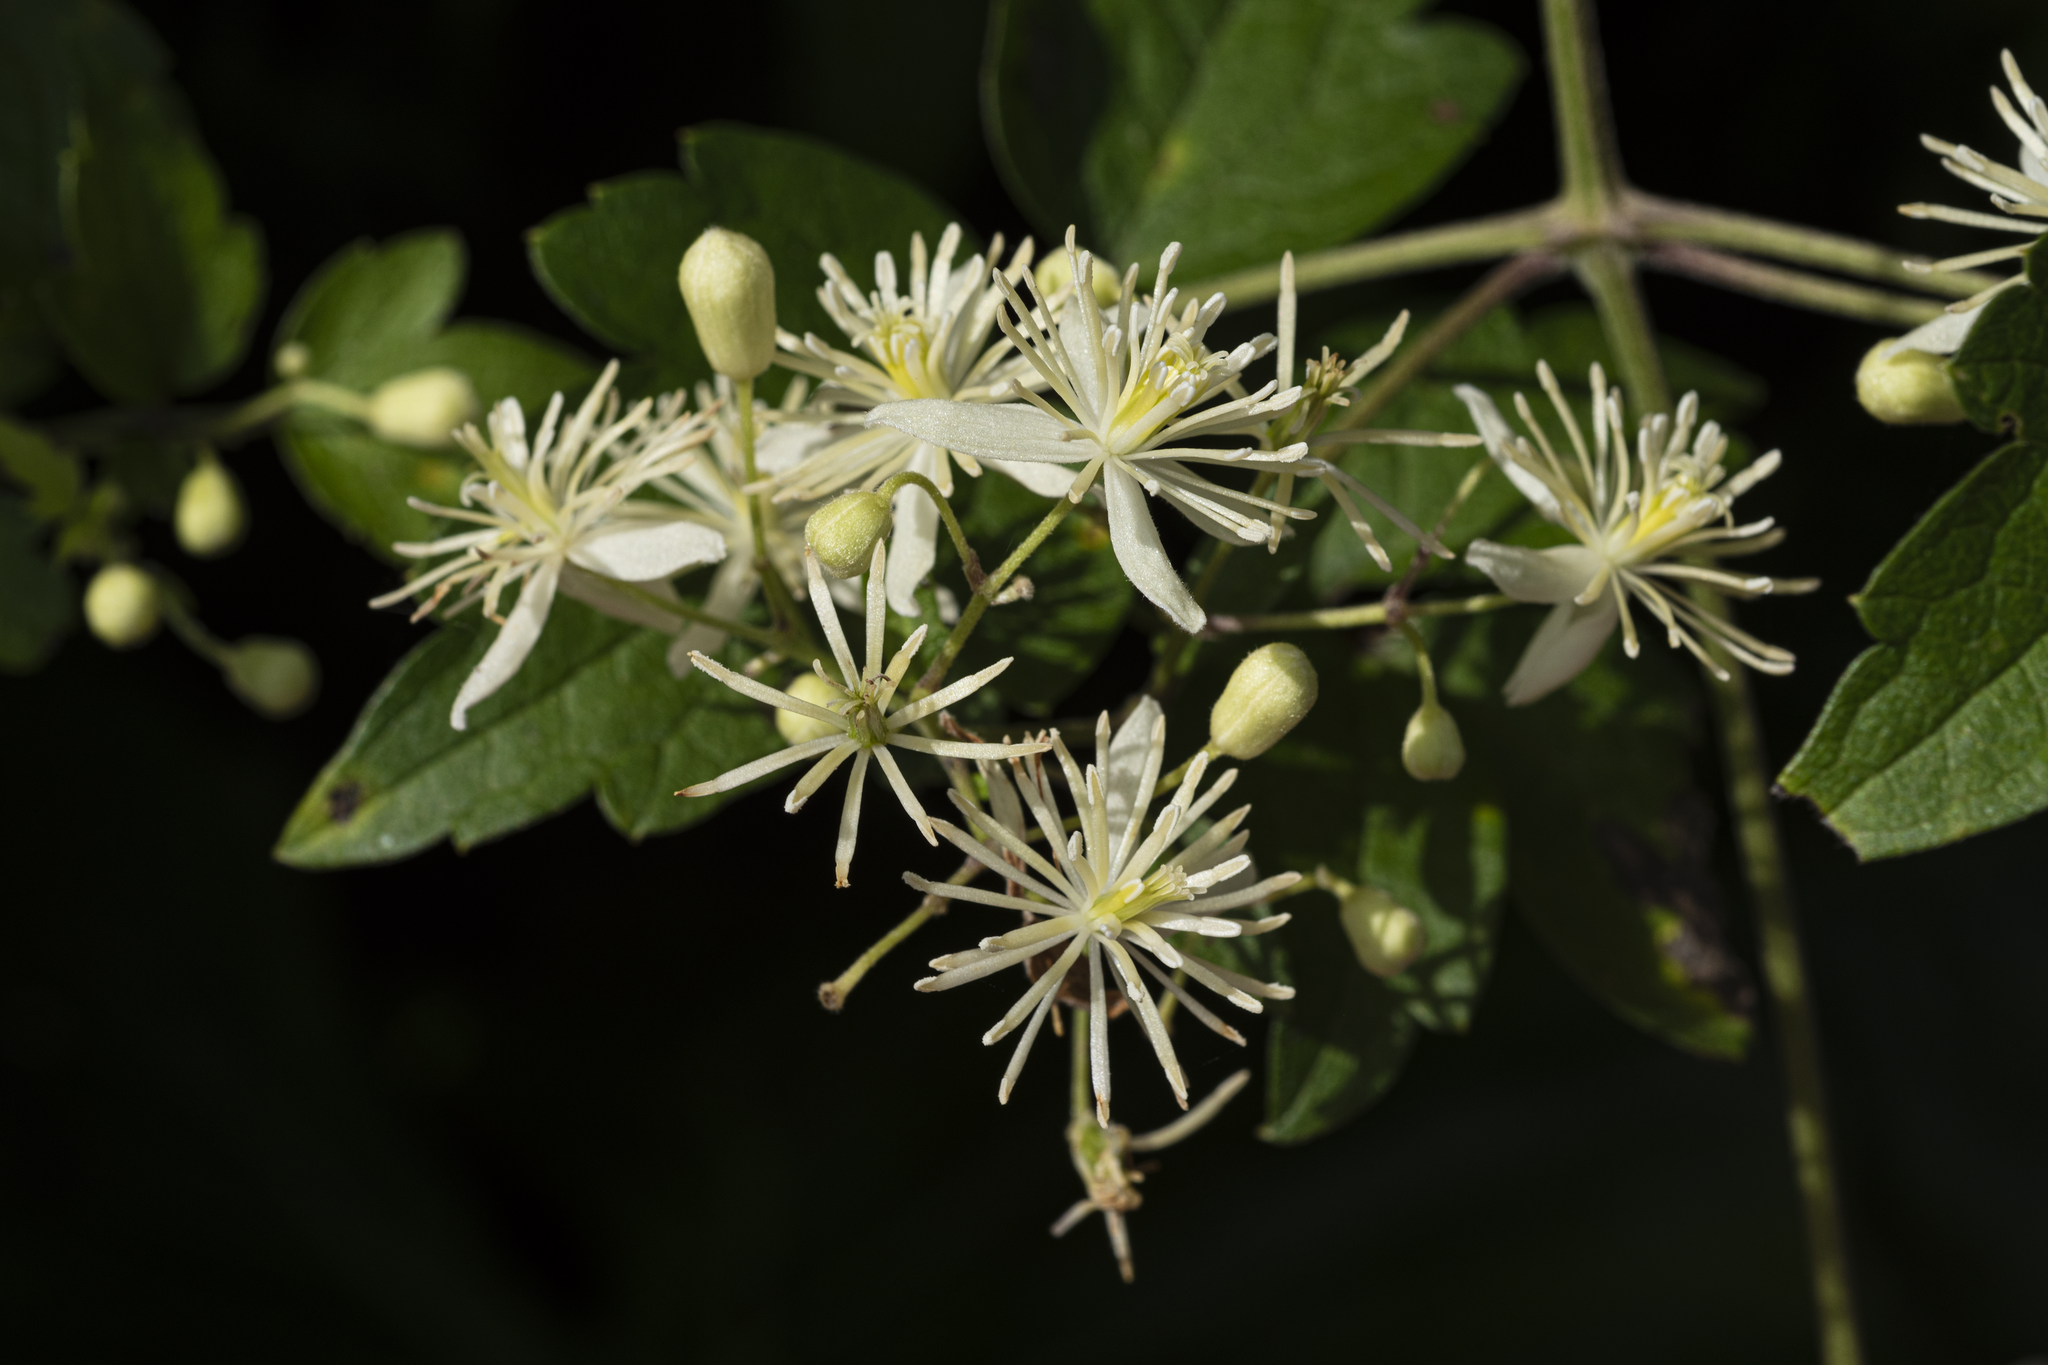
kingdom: Plantae
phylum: Tracheophyta
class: Magnoliopsida
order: Ranunculales
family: Ranunculaceae
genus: Clematis
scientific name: Clematis grata
